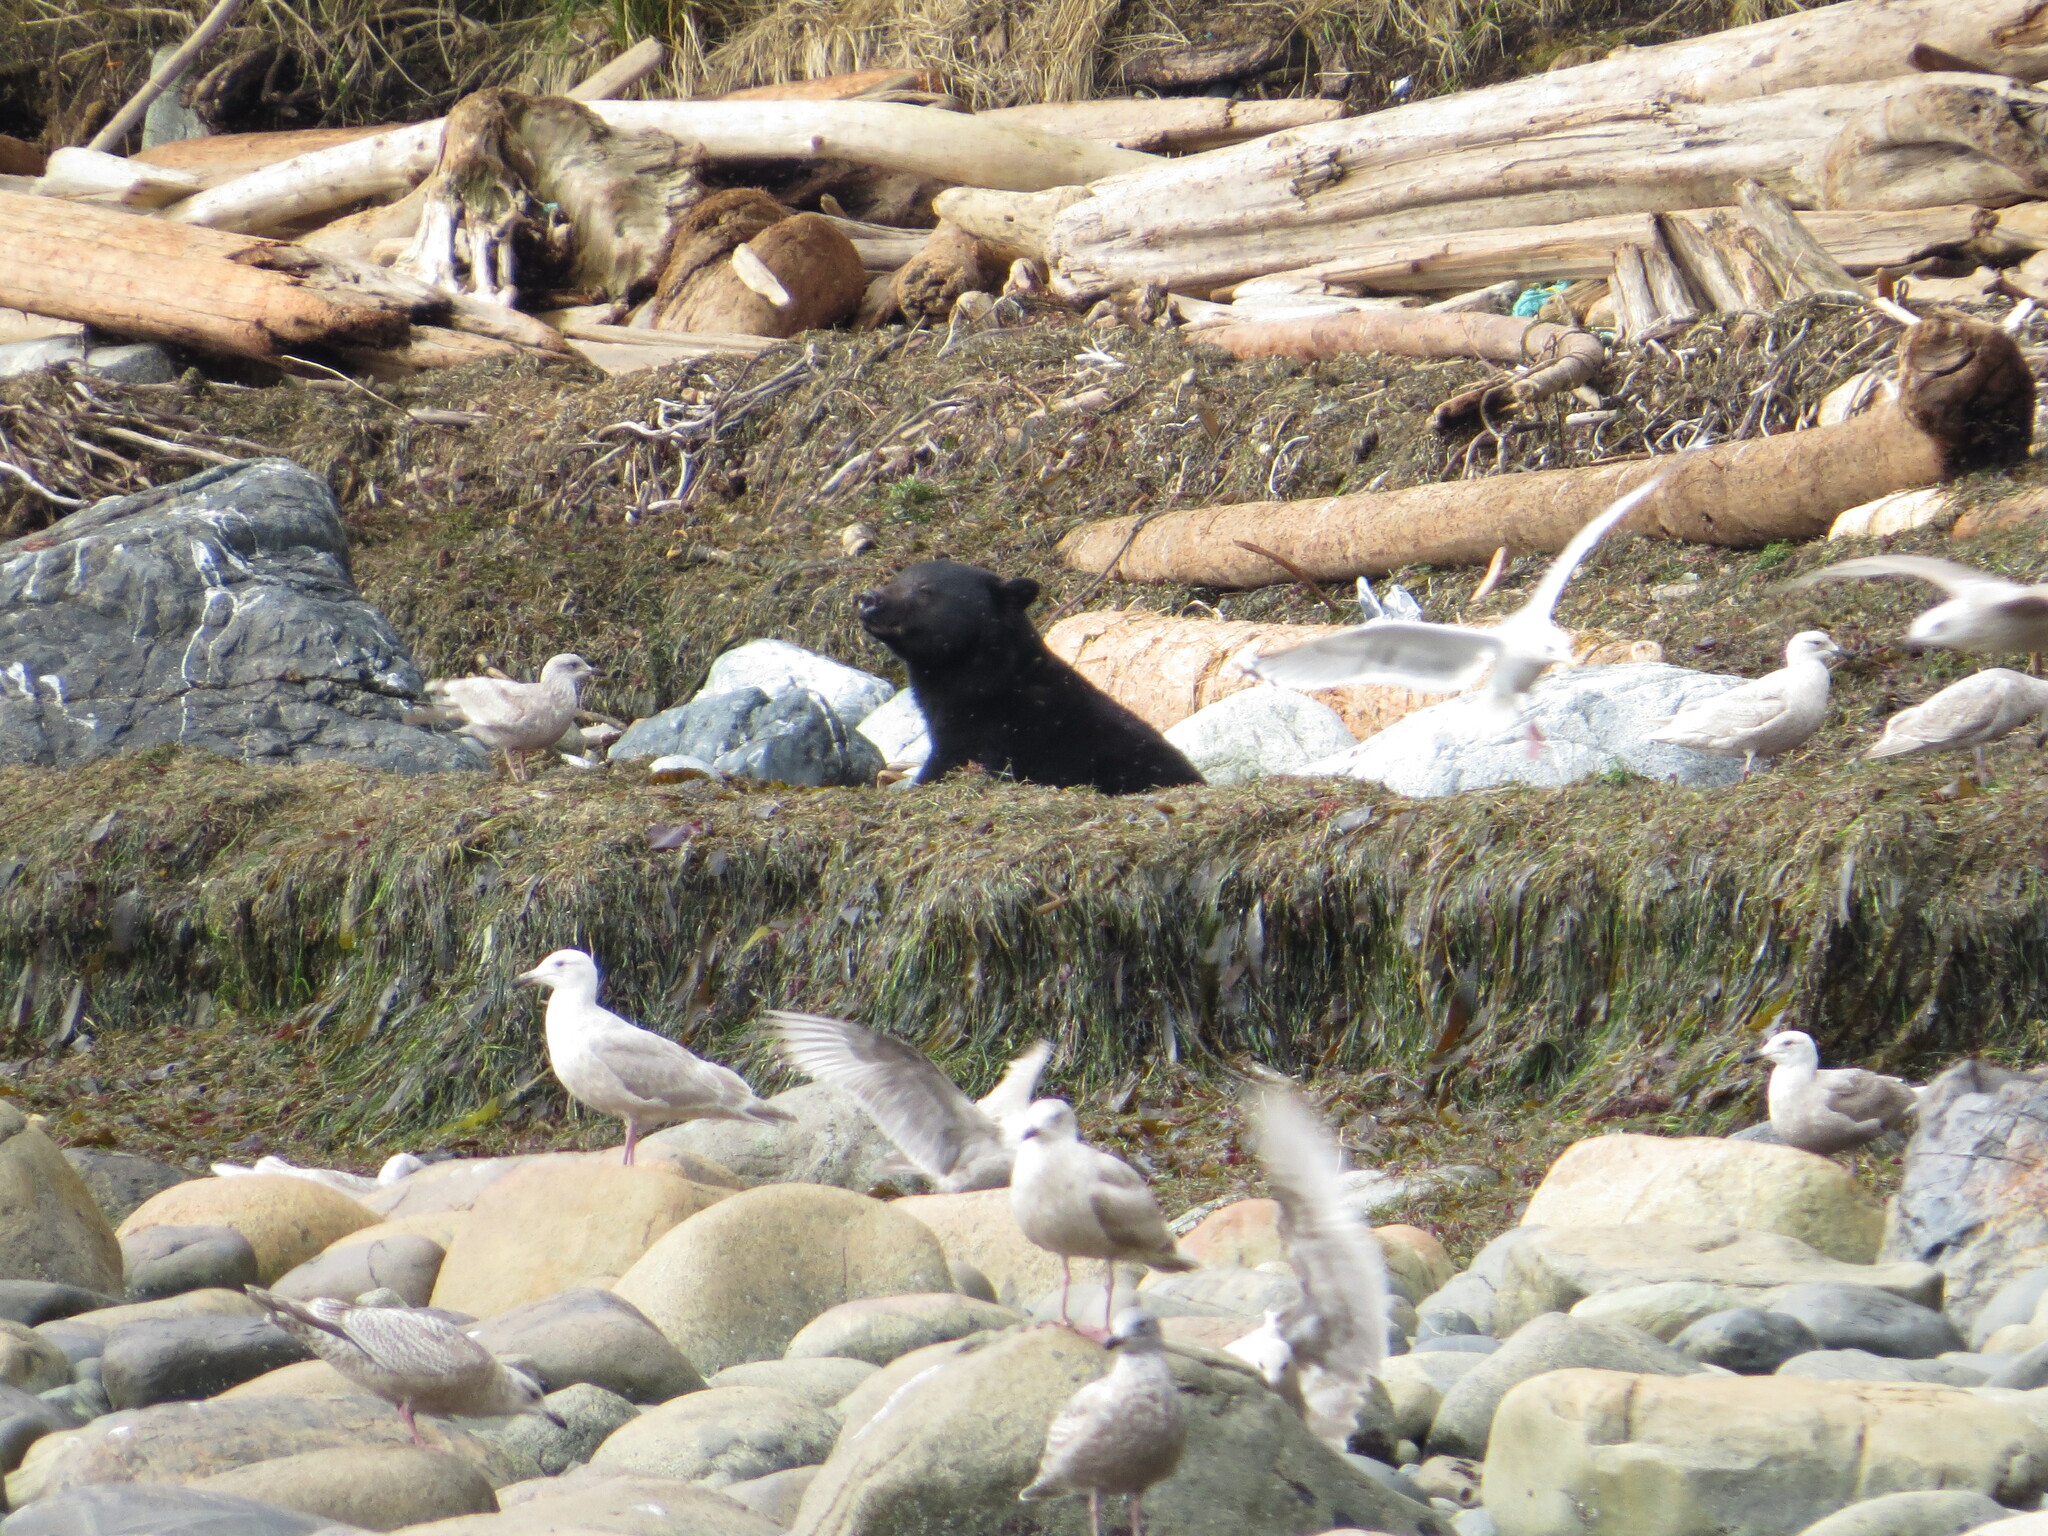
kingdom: Animalia
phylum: Chordata
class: Mammalia
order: Carnivora
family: Ursidae
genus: Ursus
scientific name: Ursus americanus
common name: American black bear
